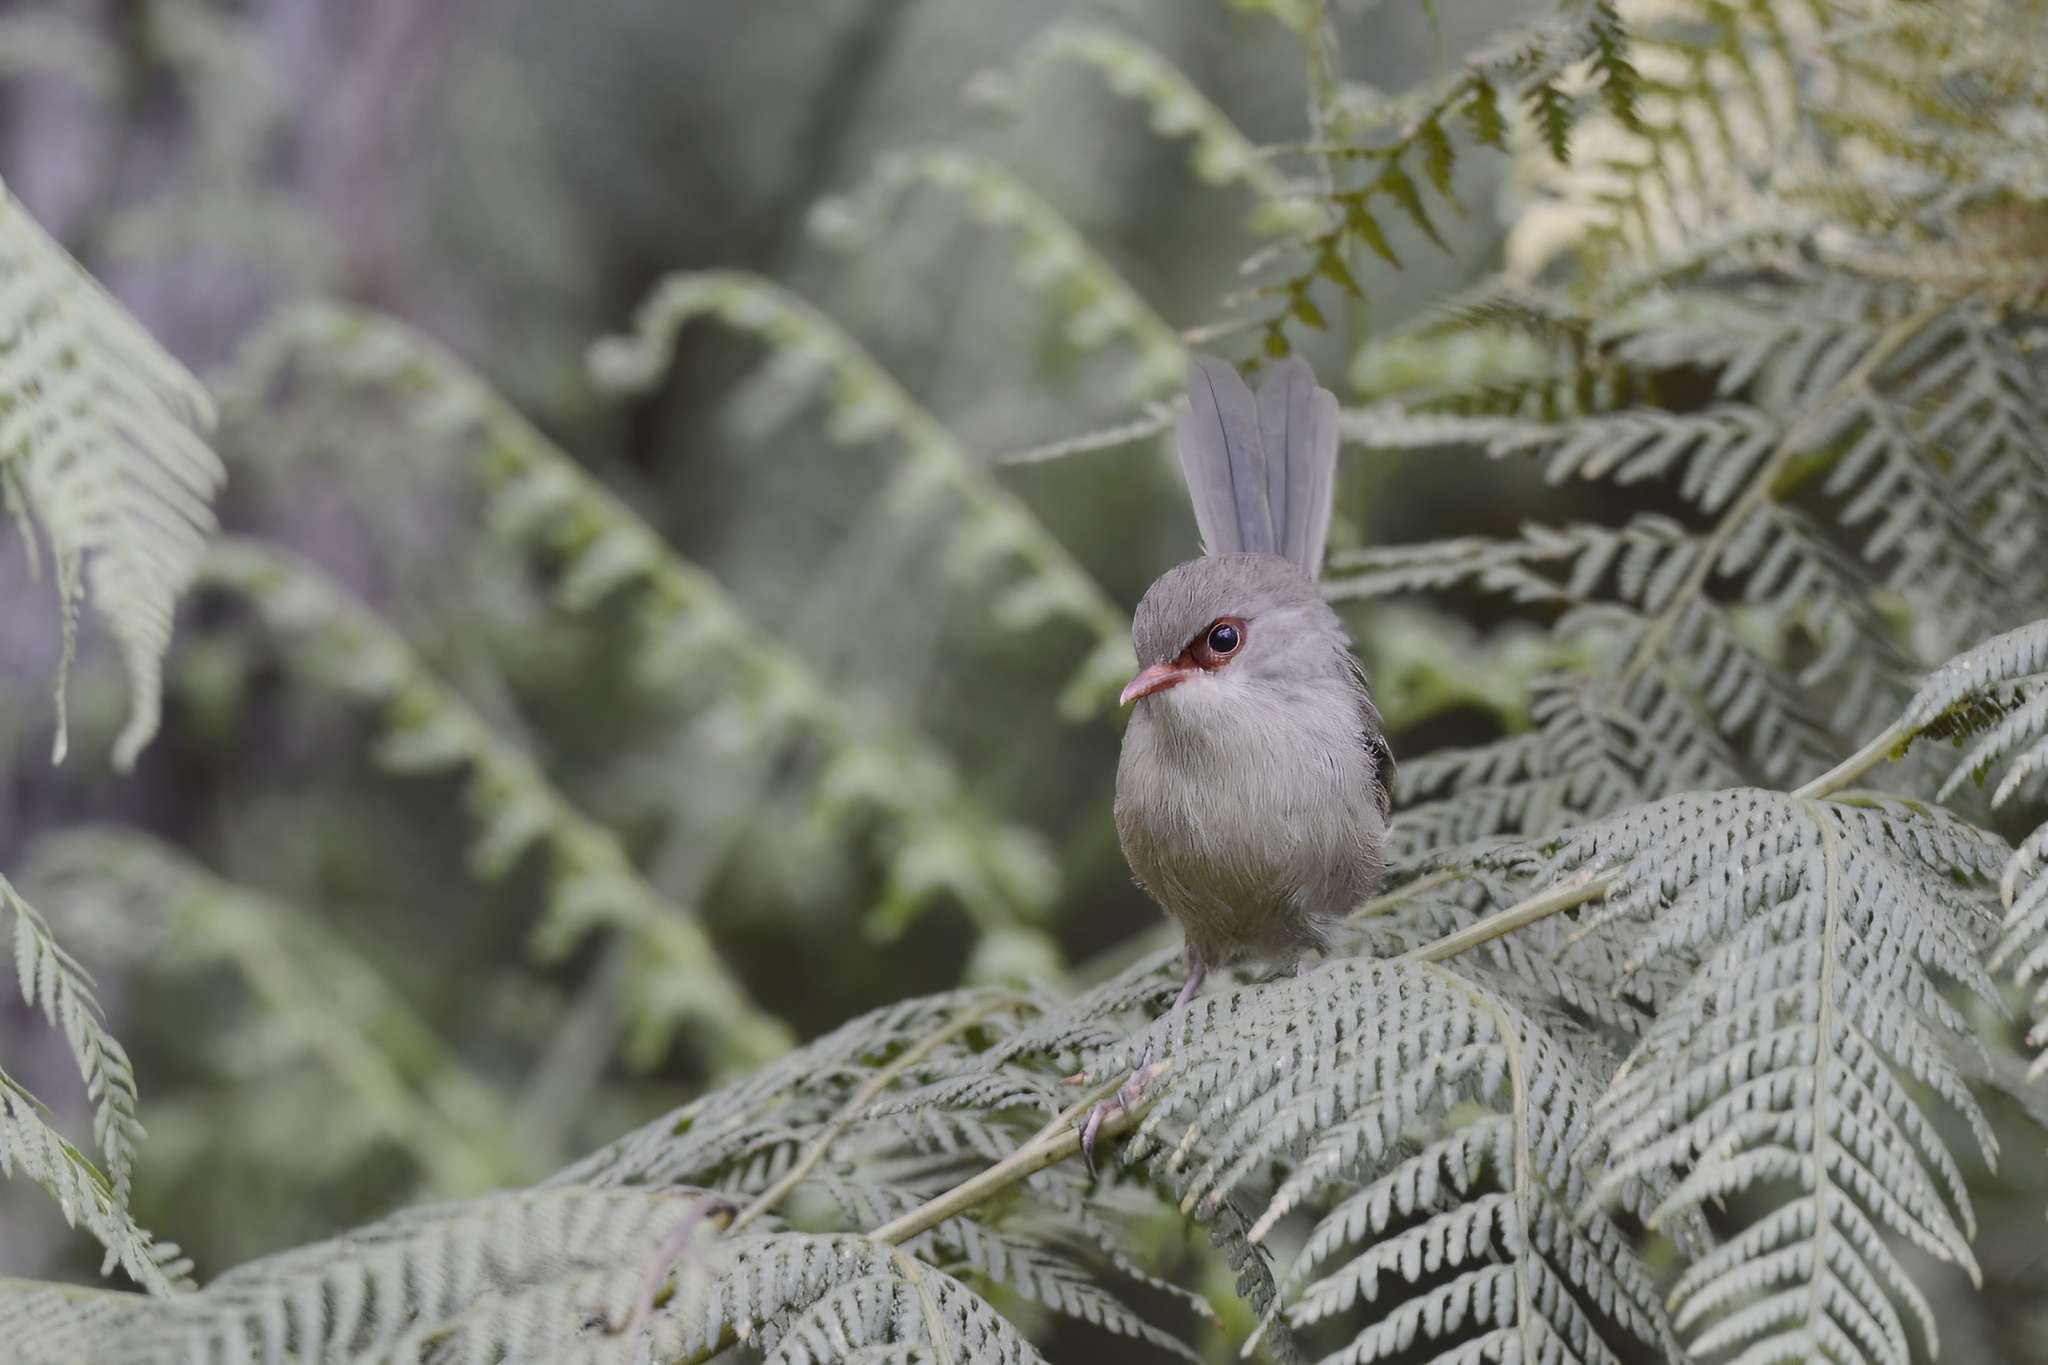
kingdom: Animalia
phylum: Chordata
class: Aves
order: Passeriformes
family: Maluridae
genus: Malurus
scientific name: Malurus lamberti
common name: Variegated fairywren
